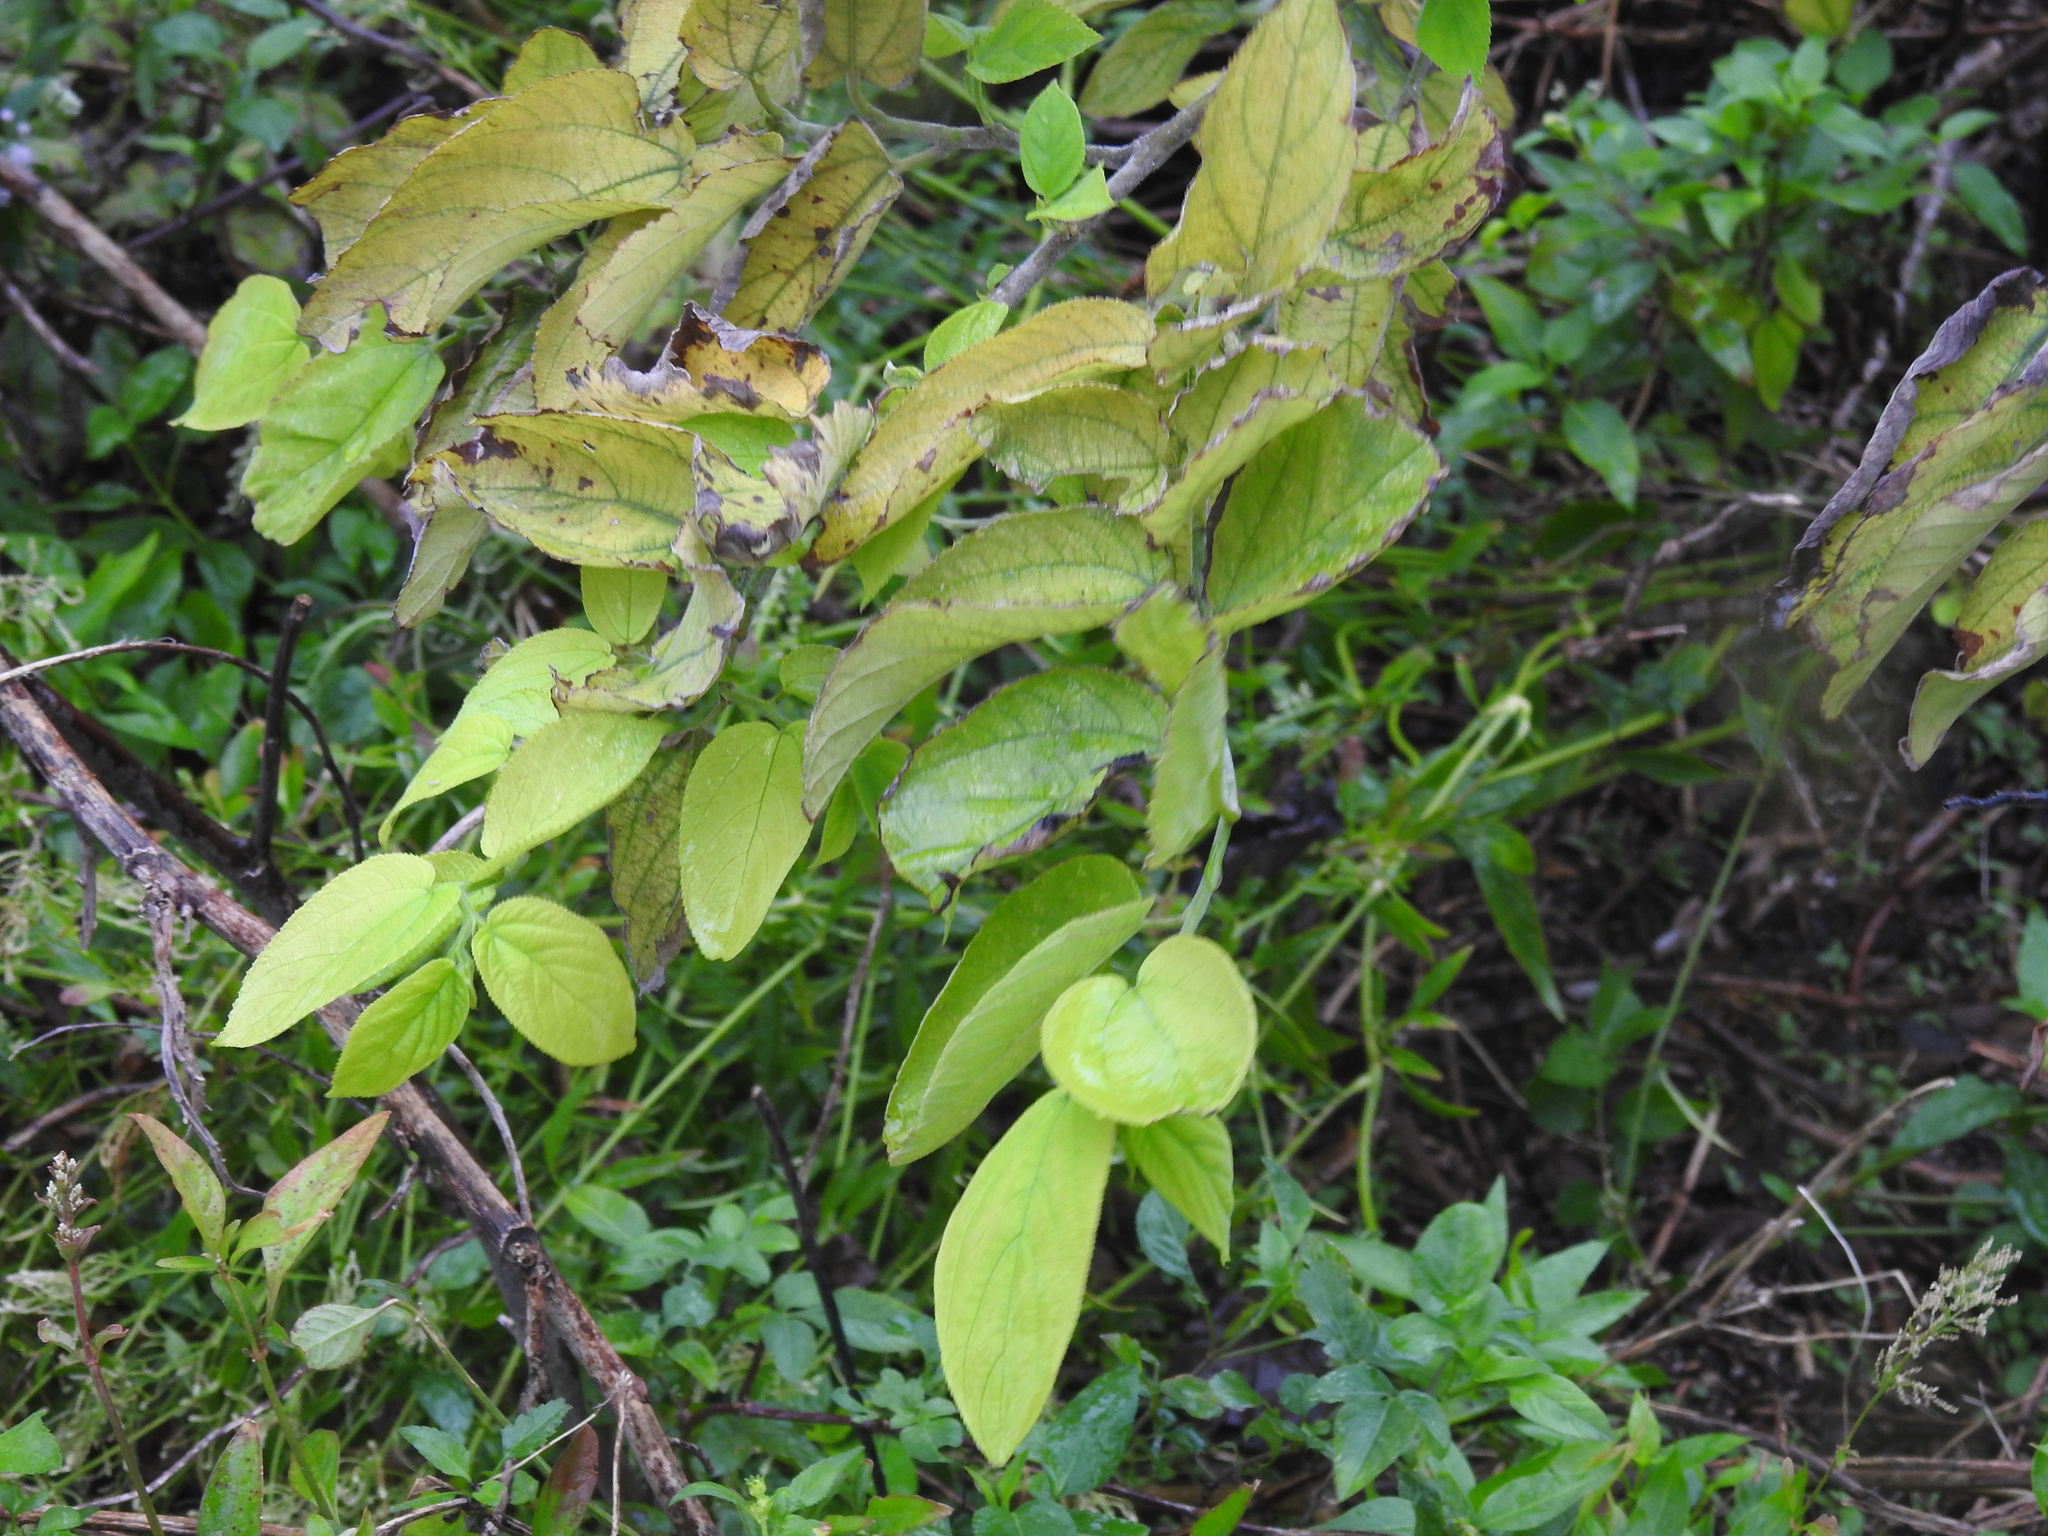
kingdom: Plantae
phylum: Tracheophyta
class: Magnoliopsida
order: Rosales
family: Cannabaceae
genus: Trema
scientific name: Trema micranthum
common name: Jamaican nettletree
